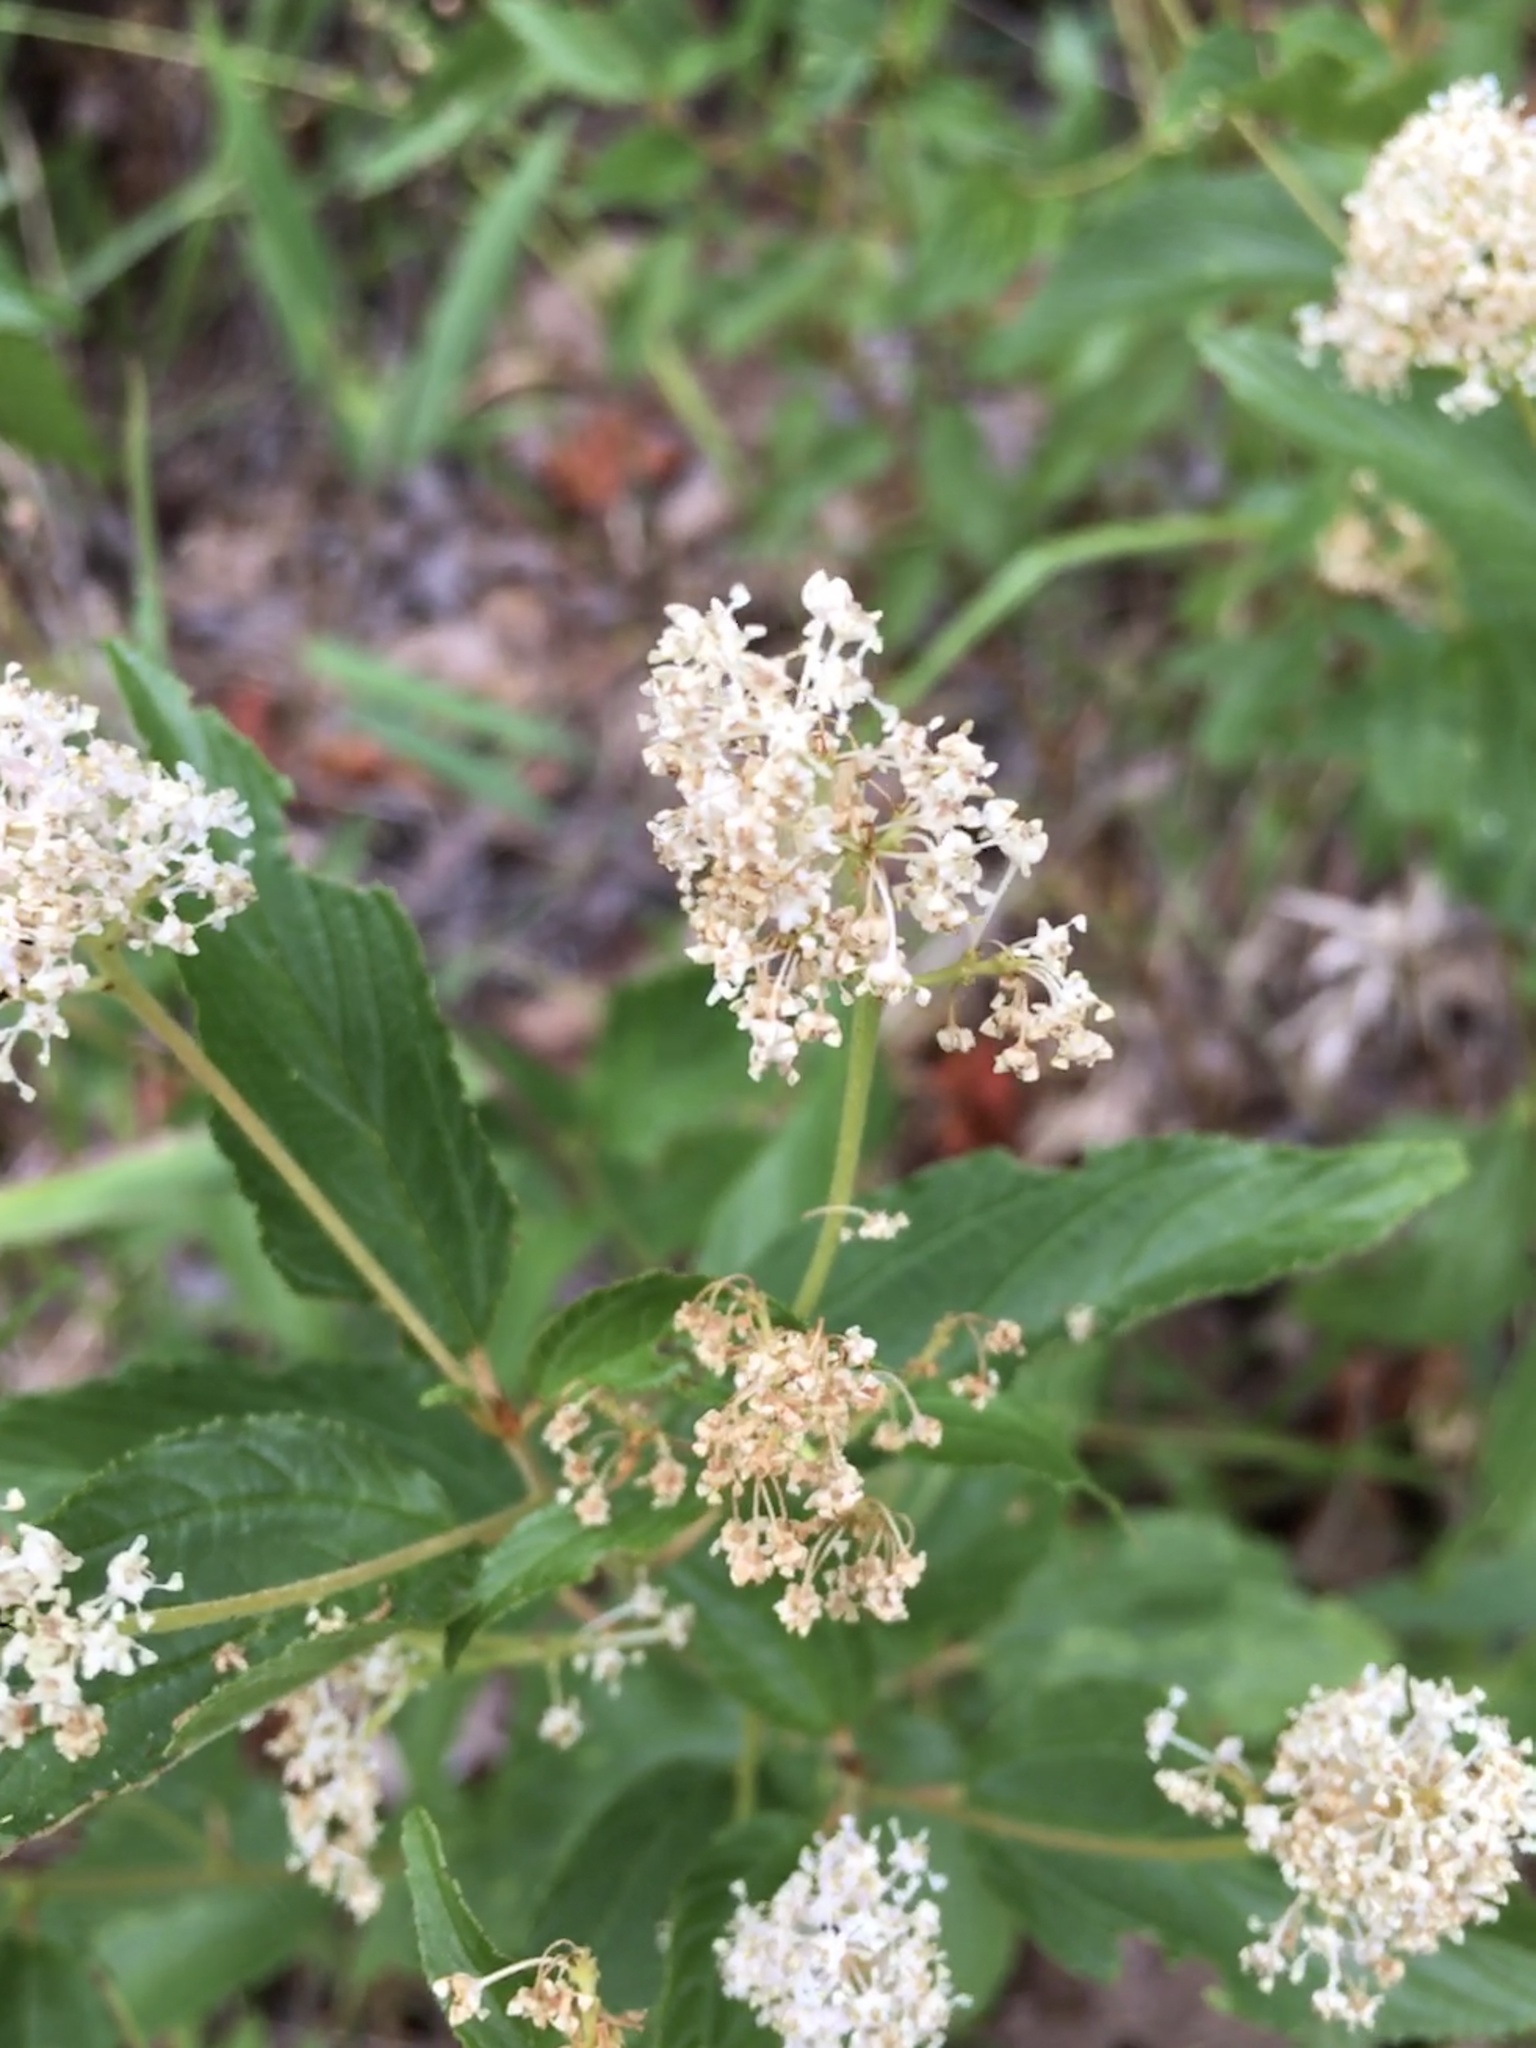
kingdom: Plantae
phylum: Tracheophyta
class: Magnoliopsida
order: Rosales
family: Rhamnaceae
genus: Ceanothus
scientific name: Ceanothus americanus
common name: Redroot
